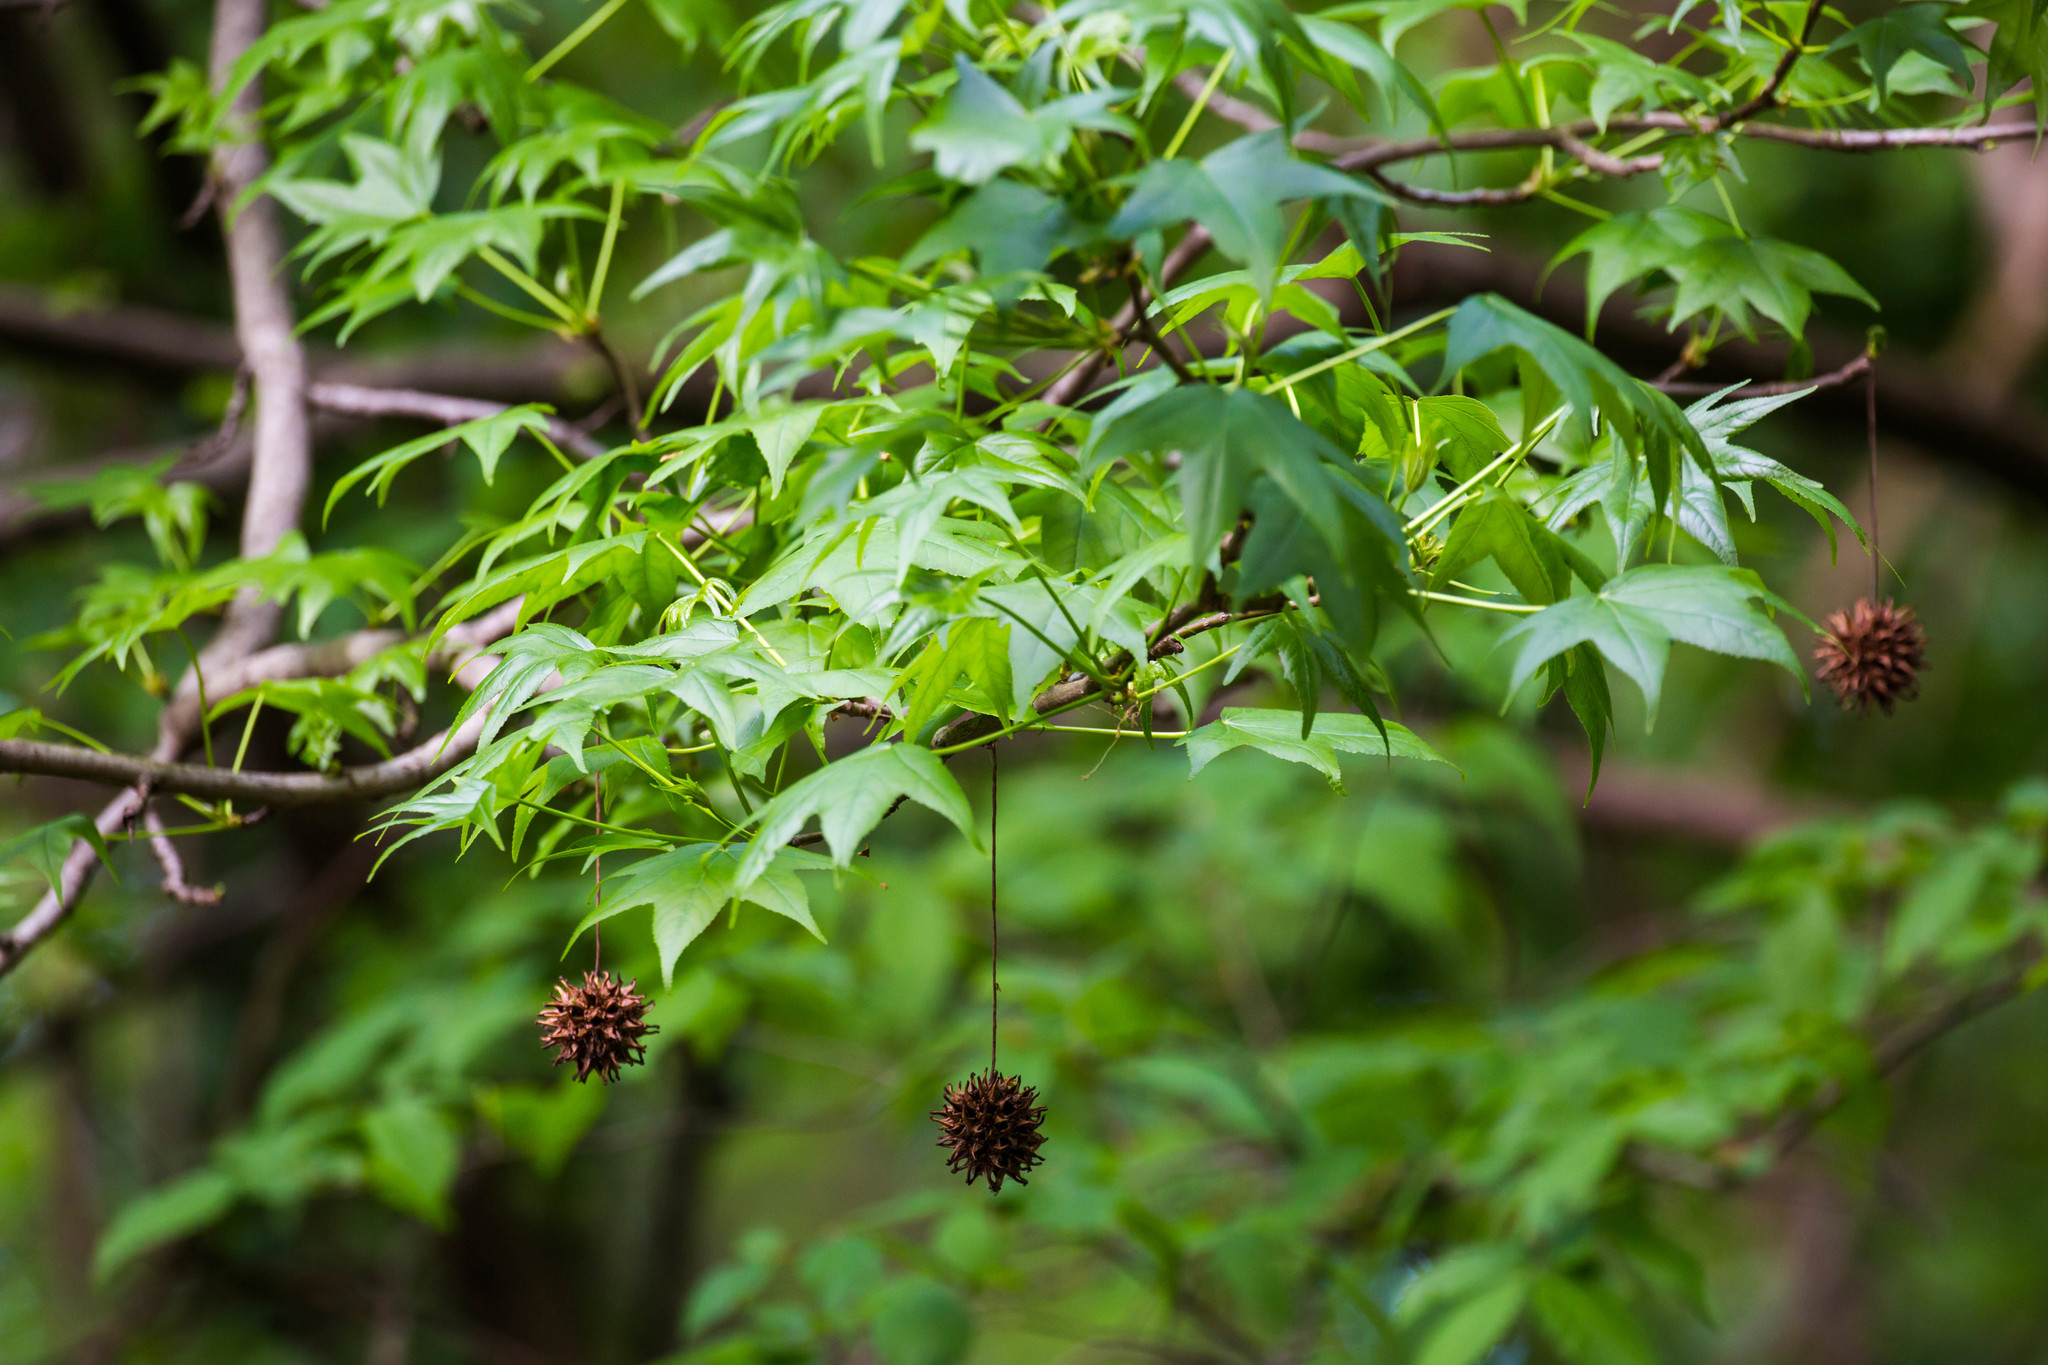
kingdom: Plantae
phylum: Tracheophyta
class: Magnoliopsida
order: Saxifragales
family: Altingiaceae
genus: Liquidambar
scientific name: Liquidambar styraciflua
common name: Sweet gum
